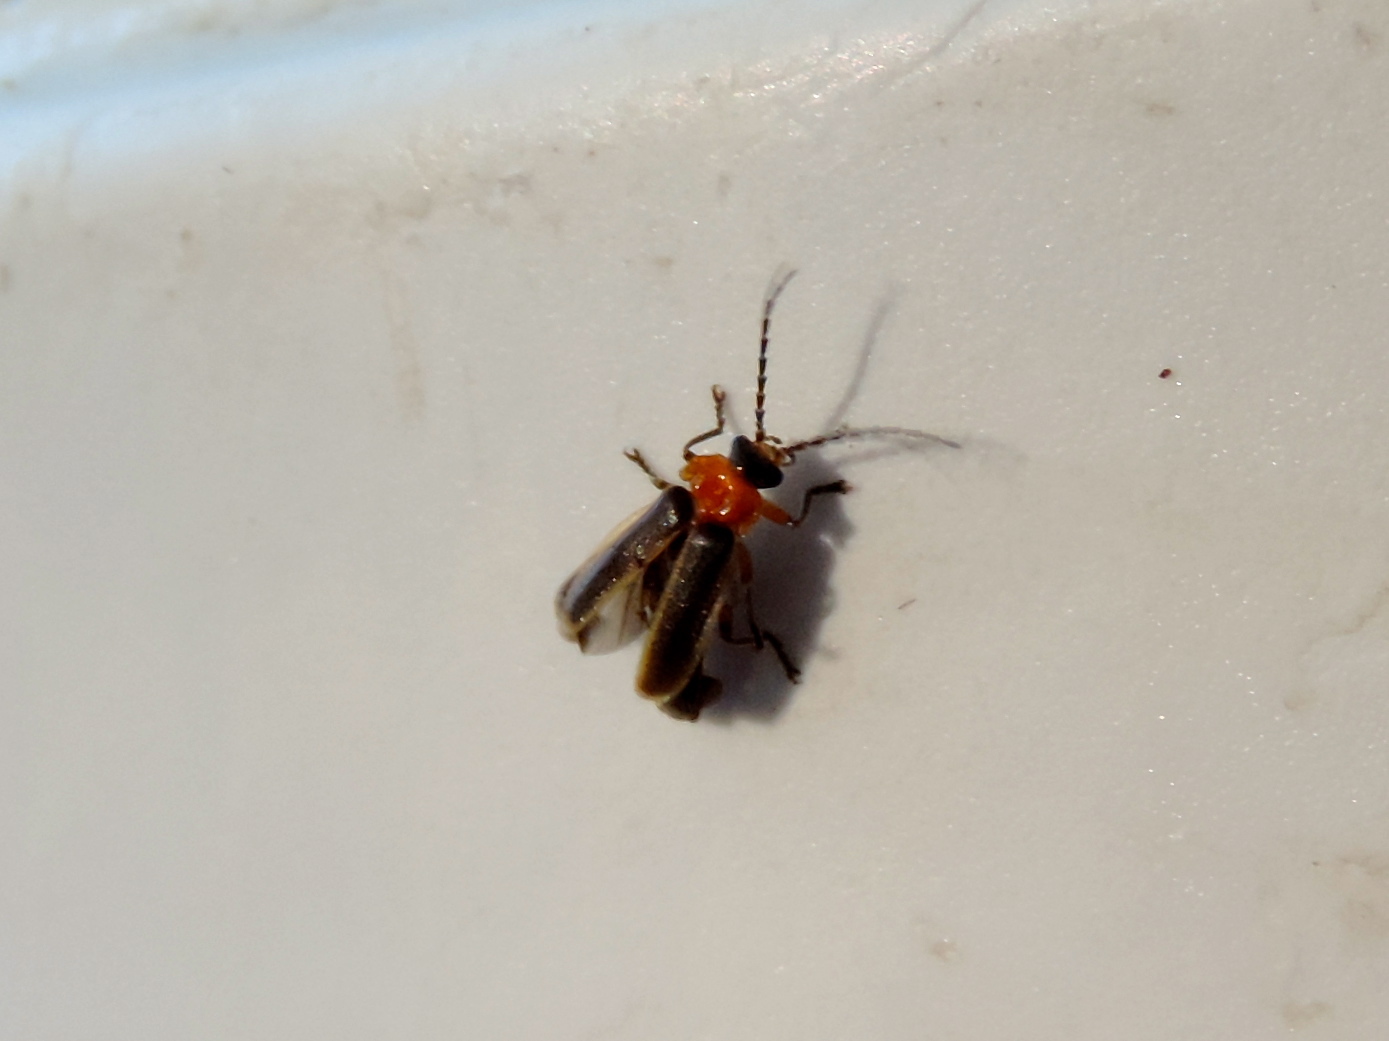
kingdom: Animalia
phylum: Arthropoda
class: Insecta
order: Coleoptera
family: Cantharidae
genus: Silis
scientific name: Silis
